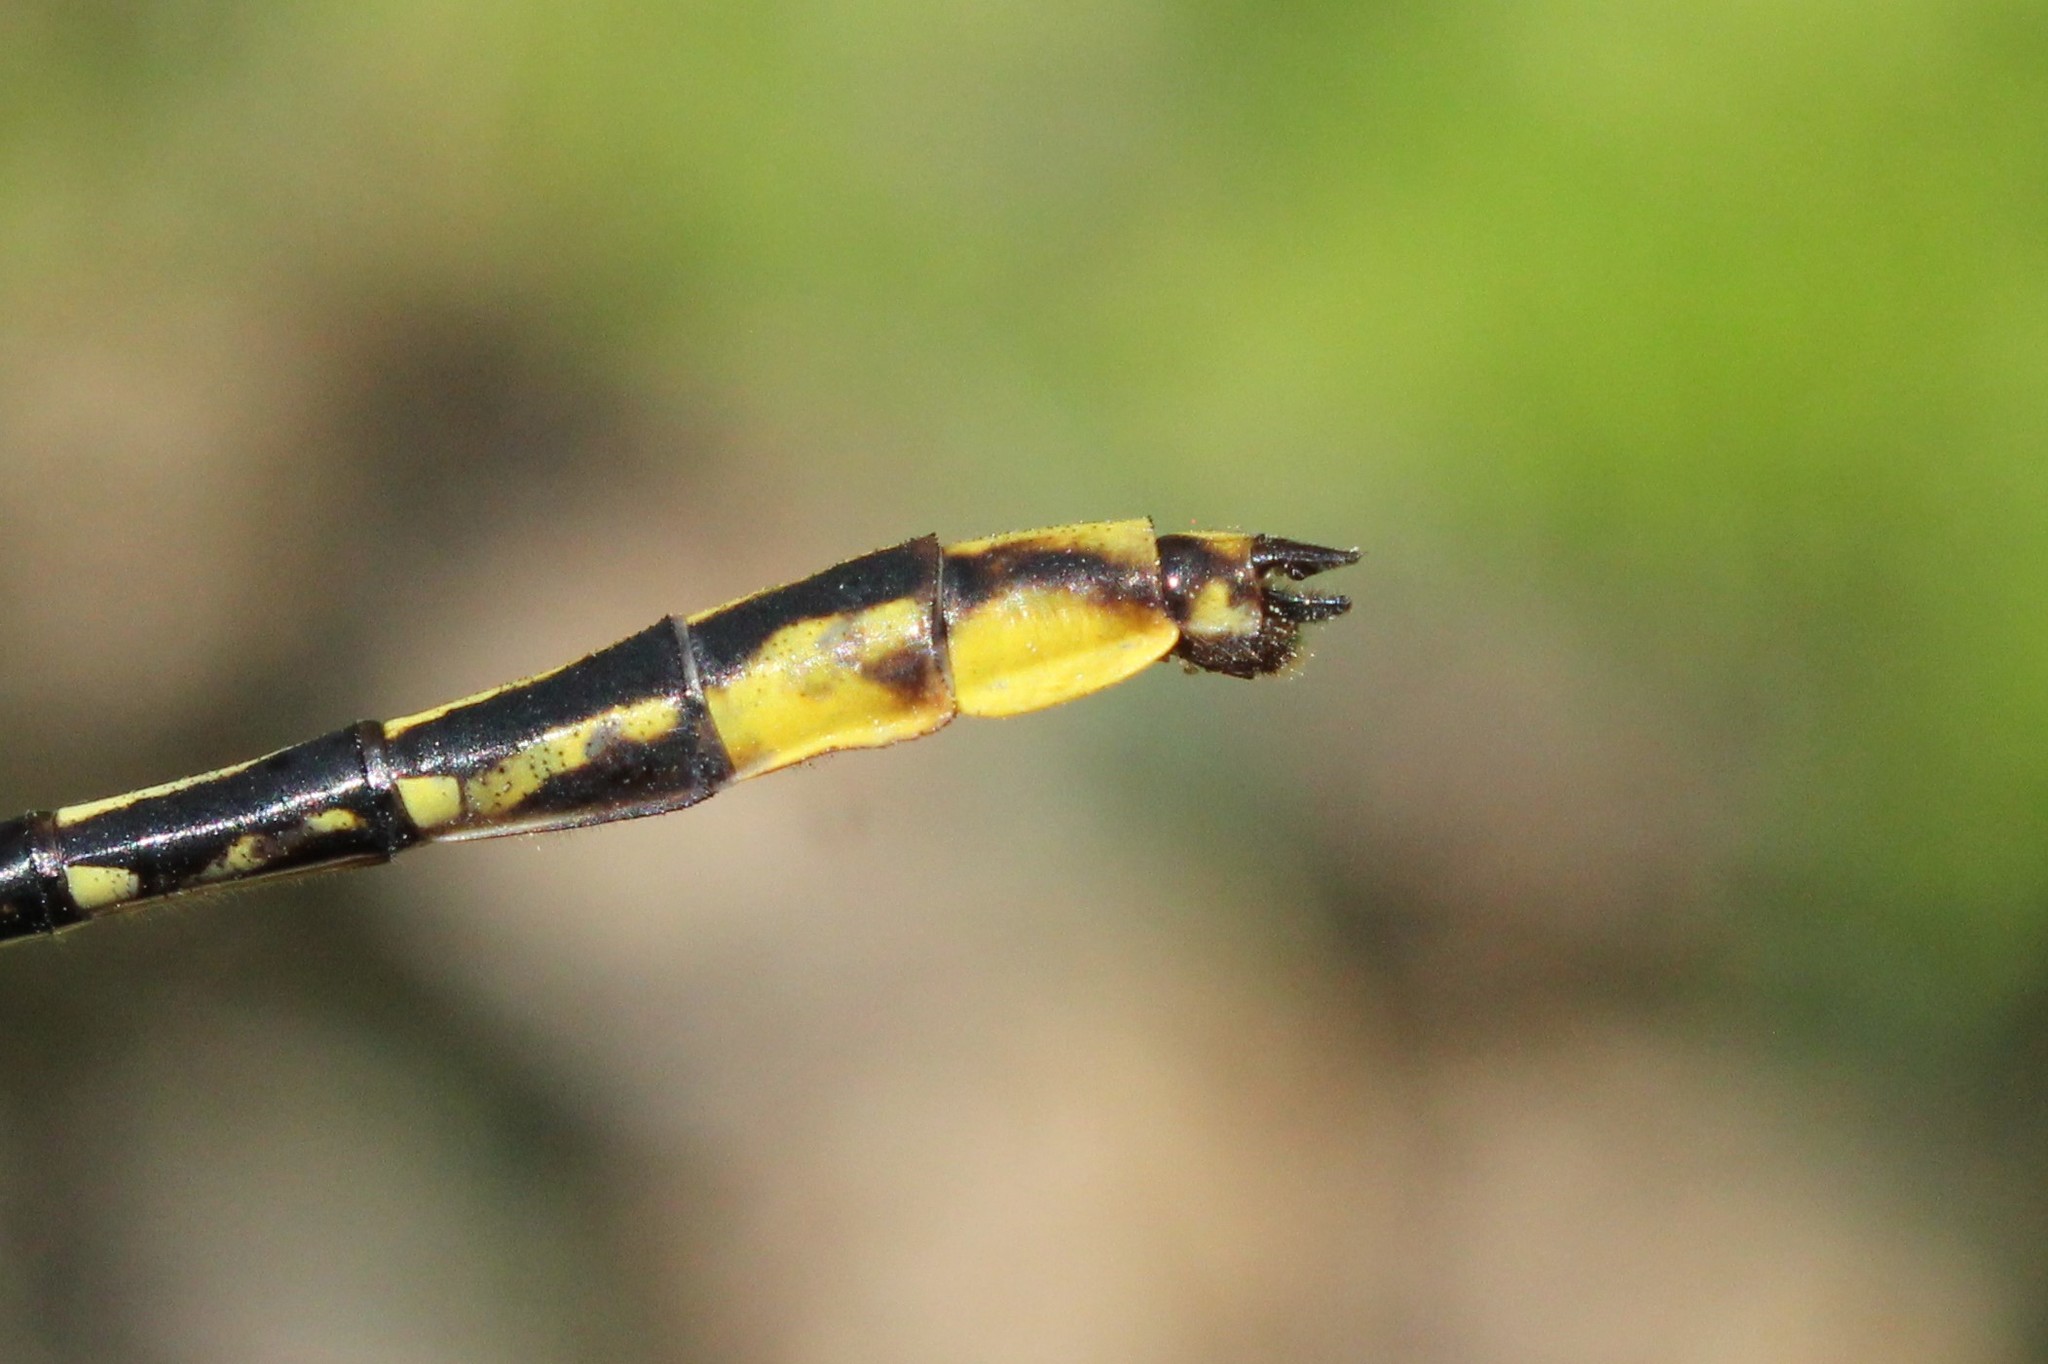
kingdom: Animalia
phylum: Arthropoda
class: Insecta
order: Odonata
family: Gomphidae
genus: Phanogomphus
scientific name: Phanogomphus exilis
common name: Lancet clubtail
